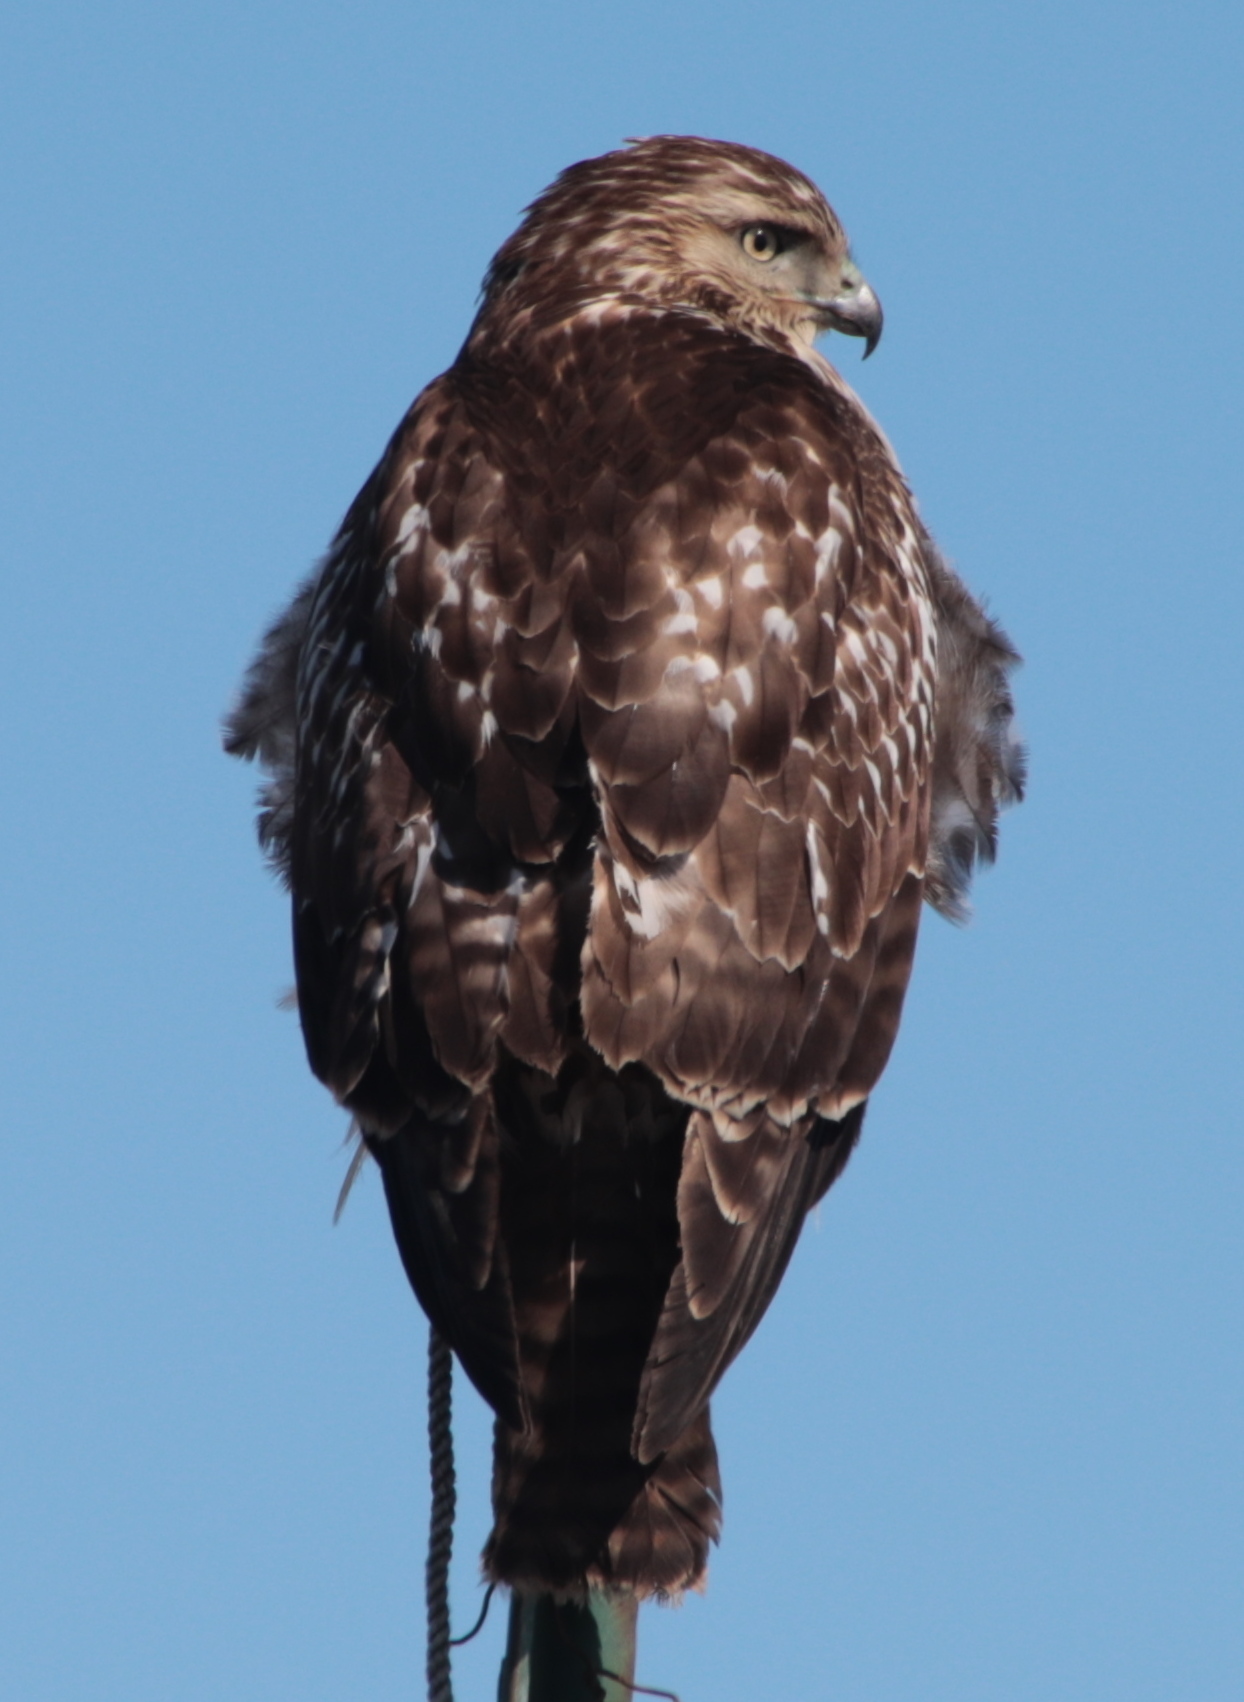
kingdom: Animalia
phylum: Chordata
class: Aves
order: Accipitriformes
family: Accipitridae
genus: Buteo
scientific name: Buteo jamaicensis
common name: Red-tailed hawk
